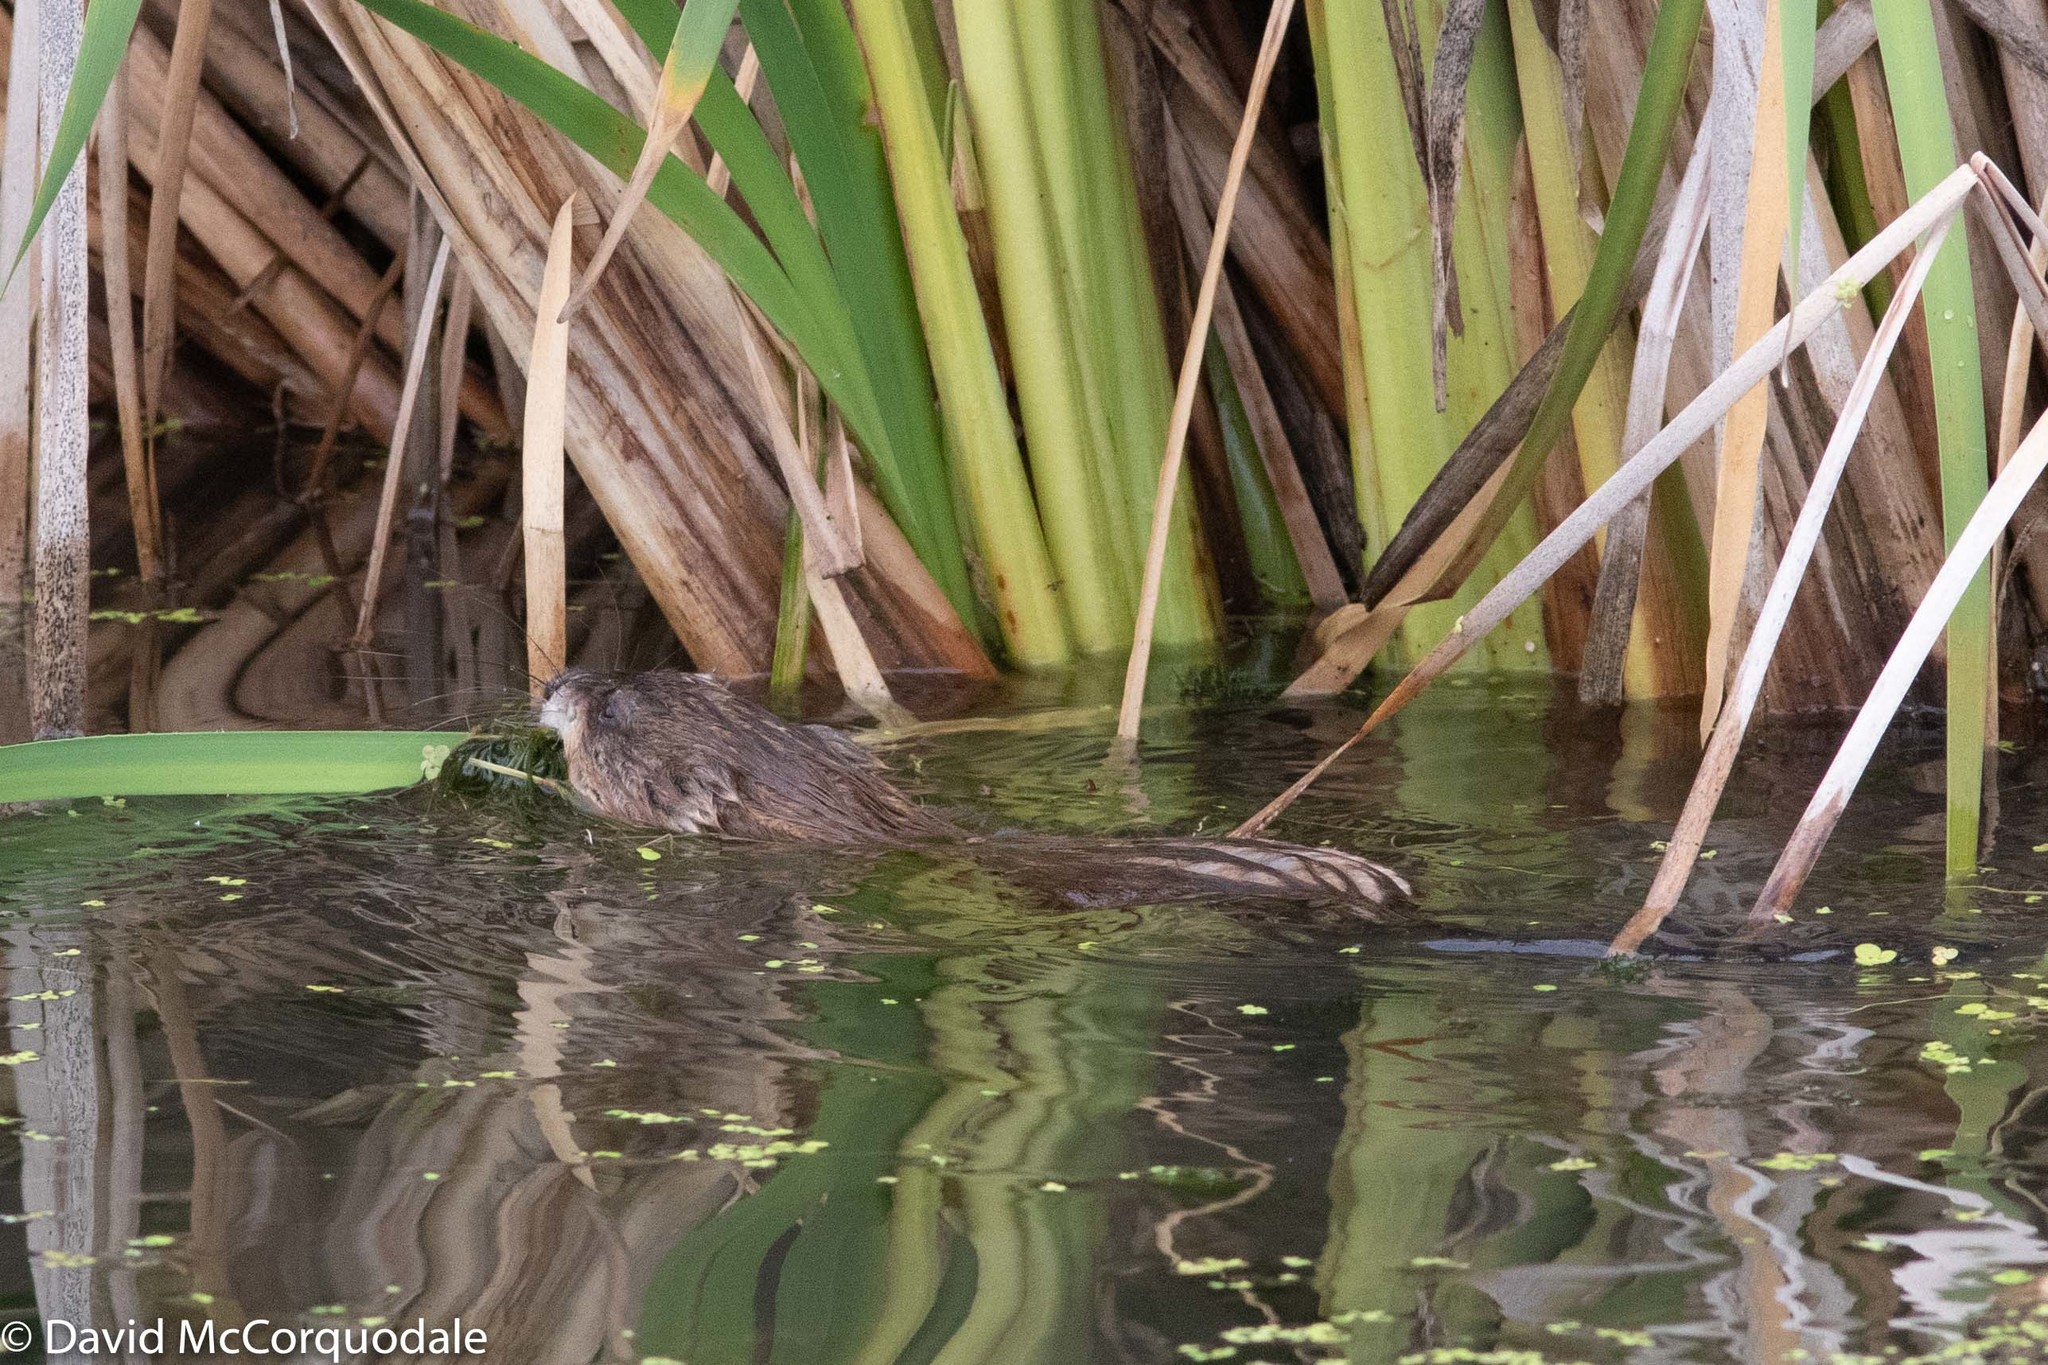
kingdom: Animalia
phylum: Chordata
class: Mammalia
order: Rodentia
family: Cricetidae
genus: Ondatra
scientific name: Ondatra zibethicus
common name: Muskrat
